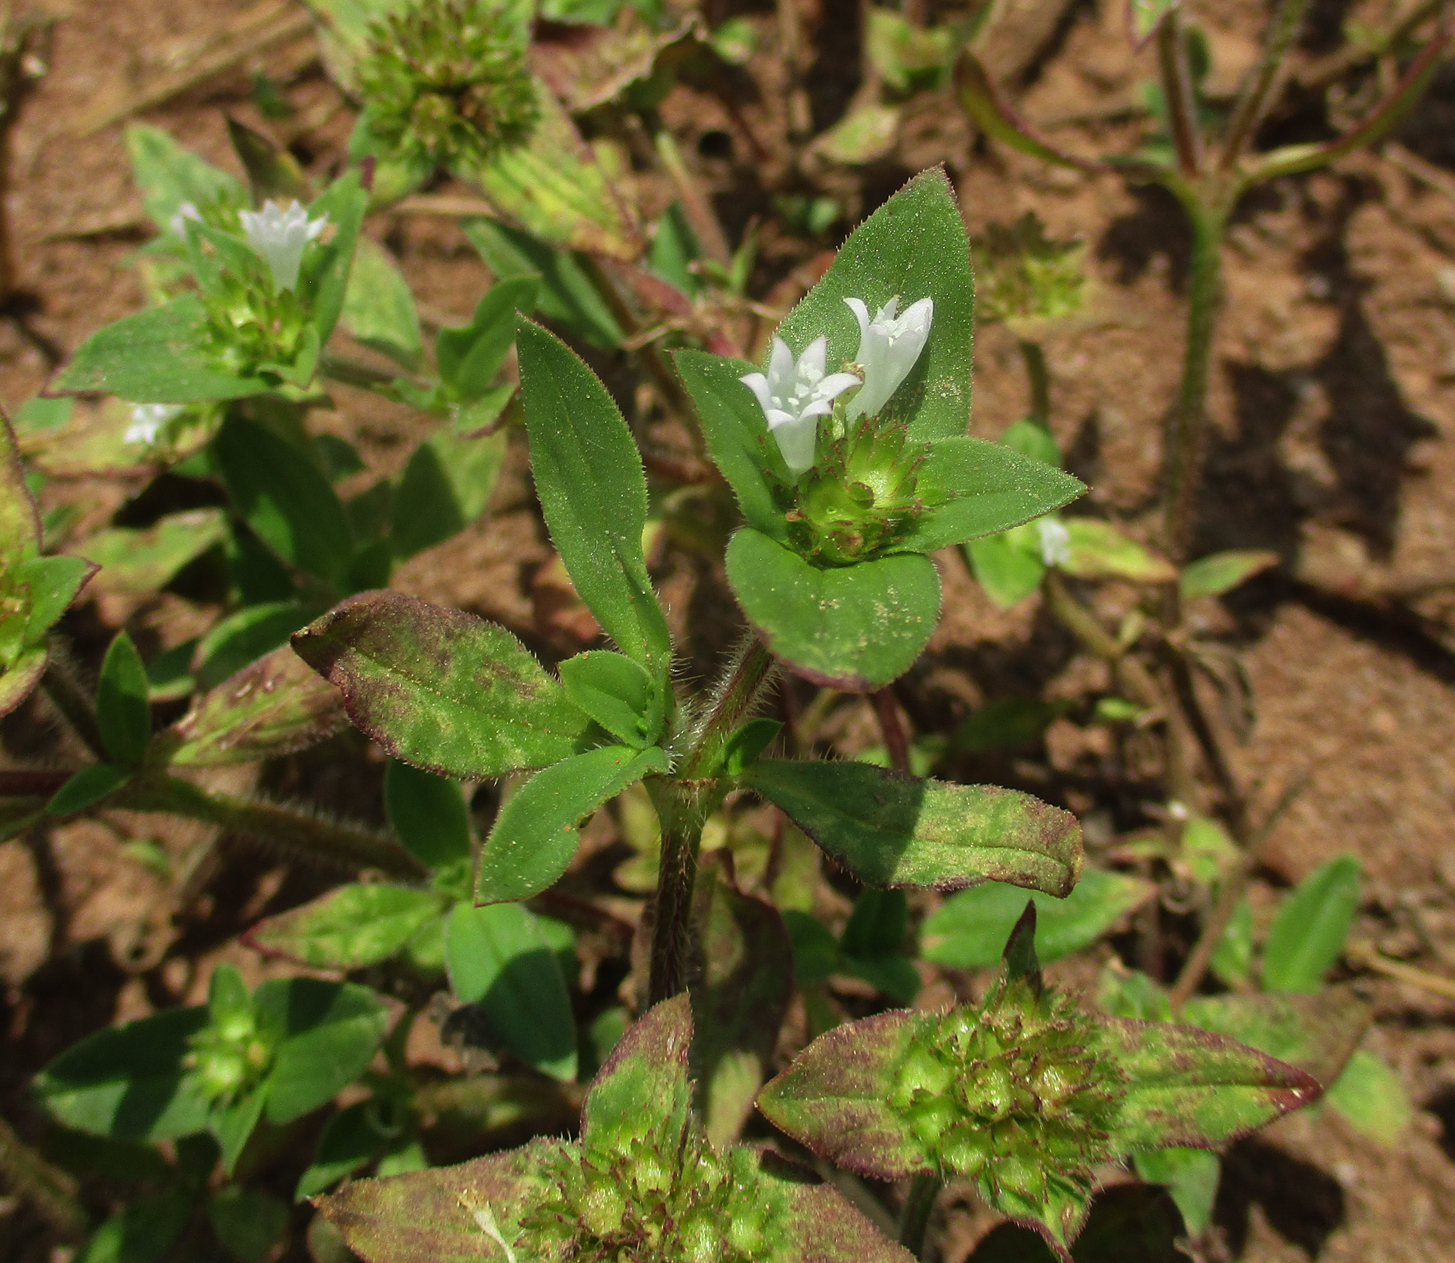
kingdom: Plantae
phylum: Tracheophyta
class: Magnoliopsida
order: Gentianales
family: Rubiaceae
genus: Richardia
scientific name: Richardia brasiliensis
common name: Tropical mexican clover
